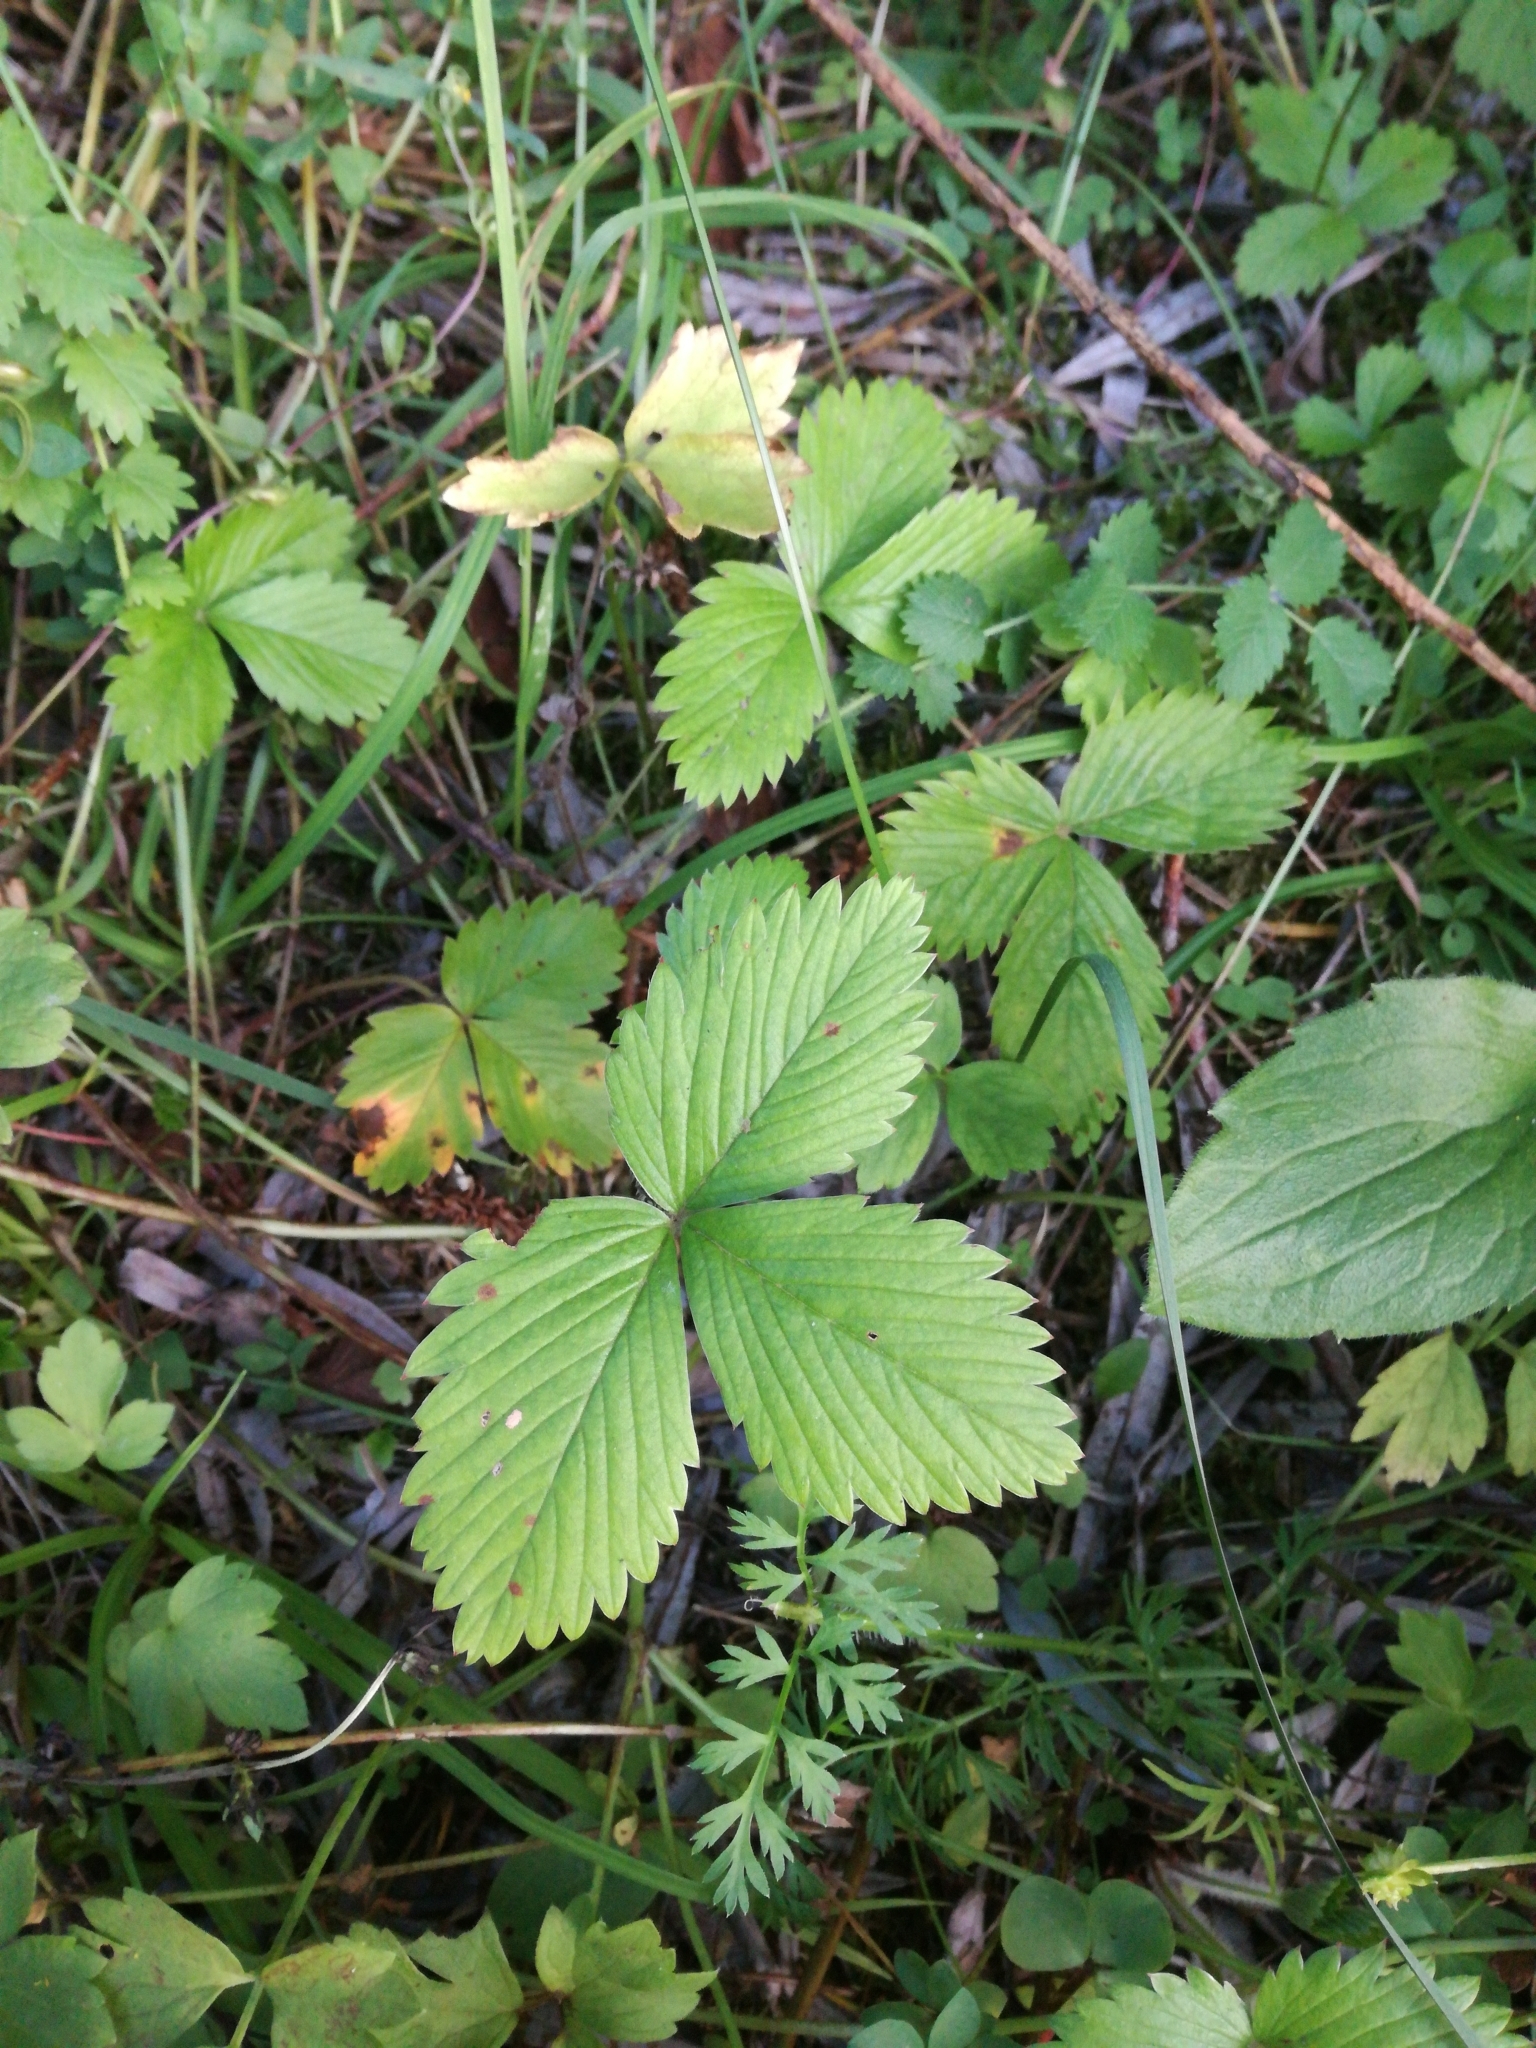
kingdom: Plantae
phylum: Tracheophyta
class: Magnoliopsida
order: Rosales
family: Rosaceae
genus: Fragaria
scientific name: Fragaria vesca
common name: Wild strawberry
